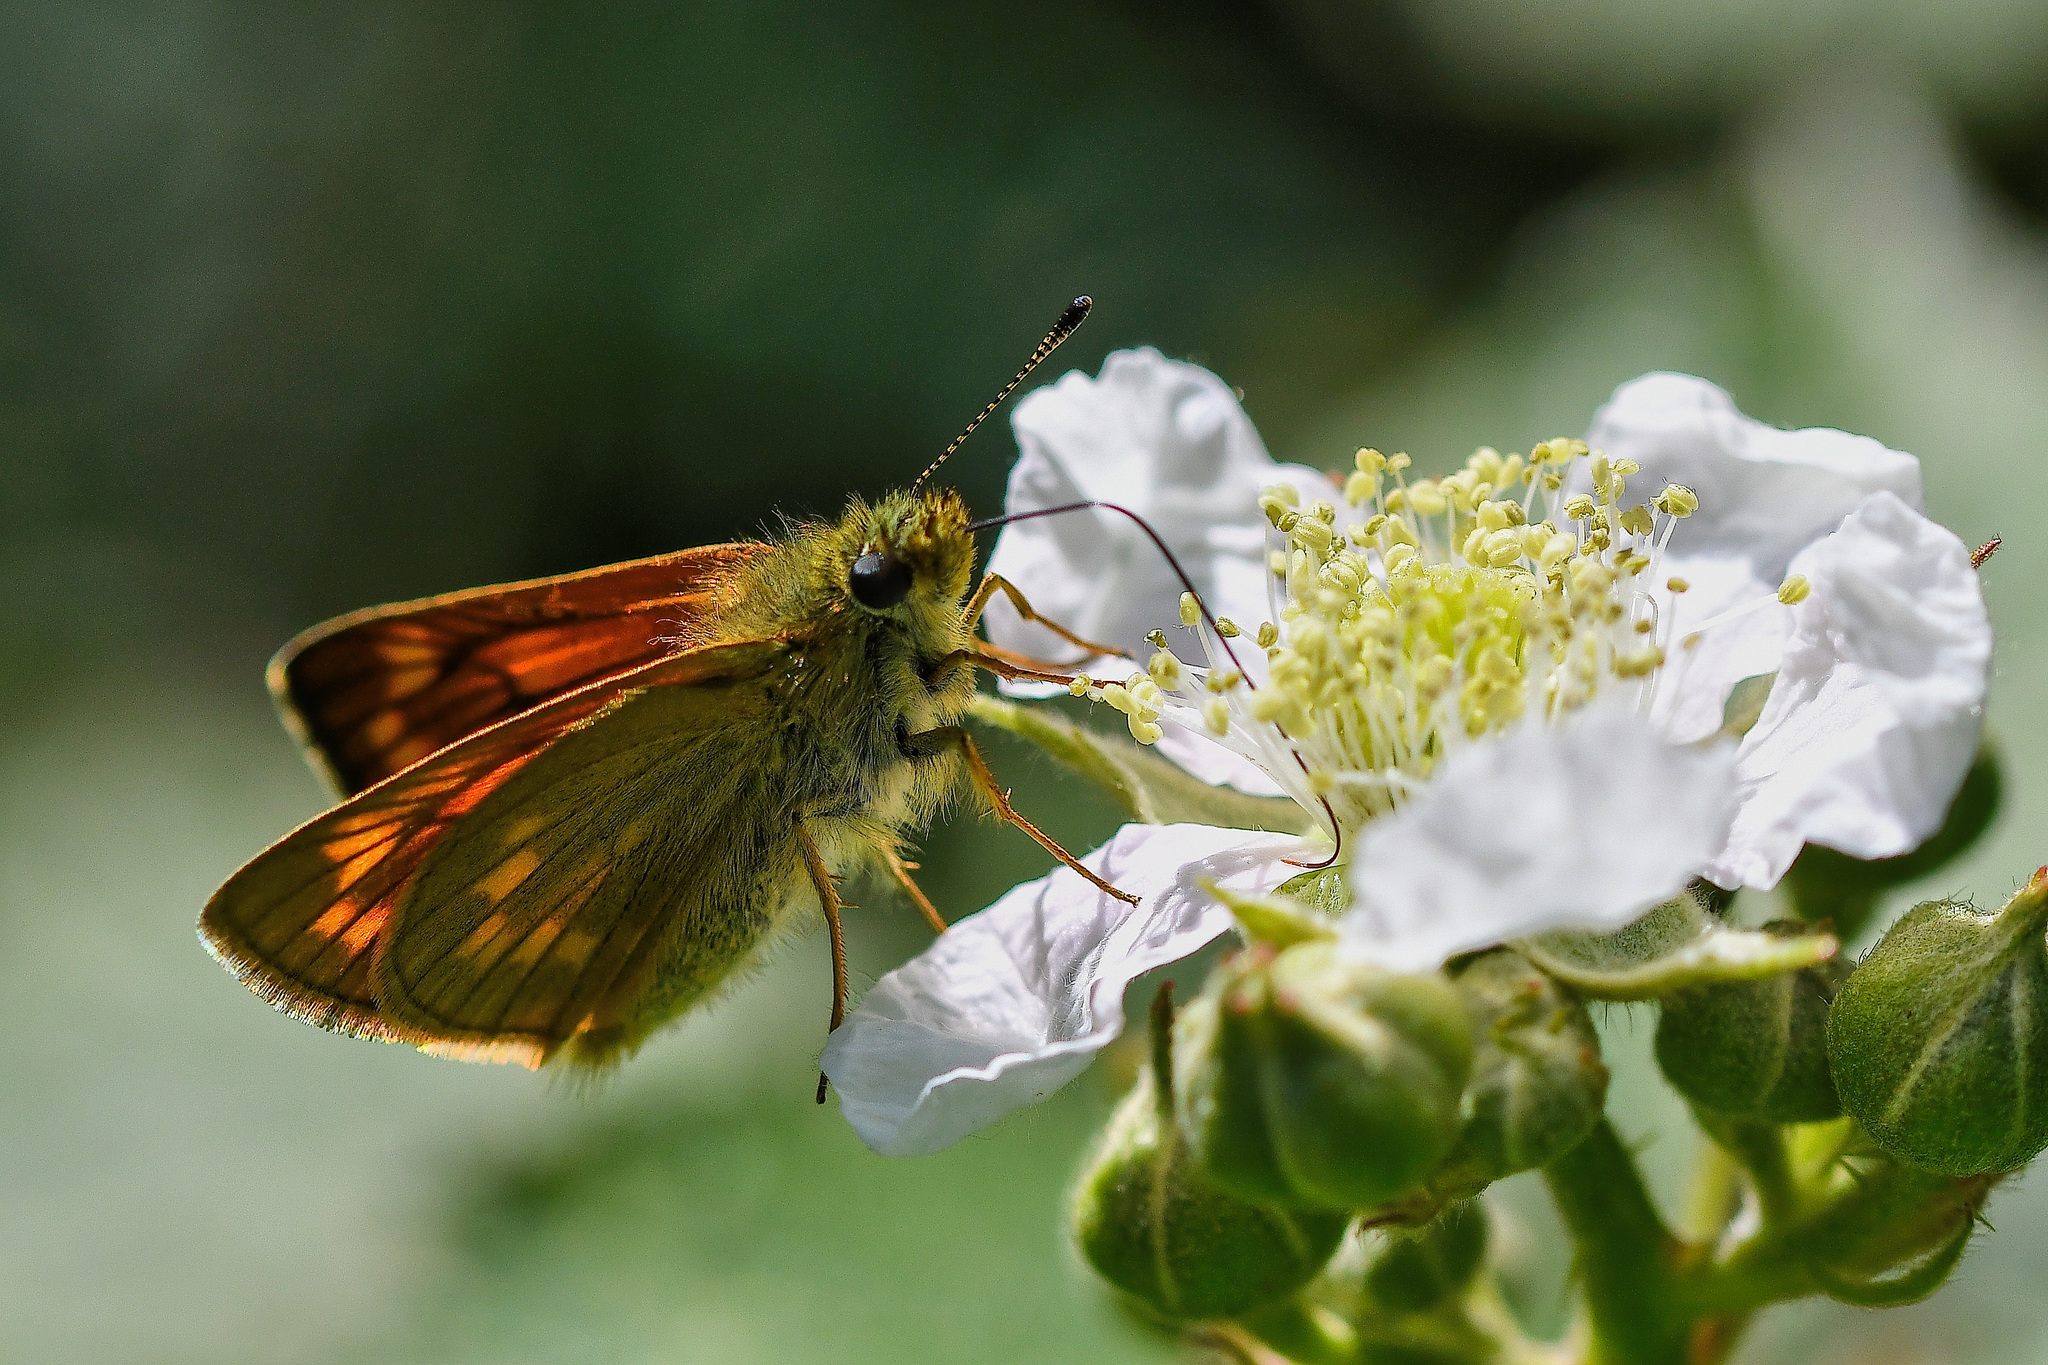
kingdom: Animalia
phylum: Arthropoda
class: Insecta
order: Lepidoptera
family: Hesperiidae
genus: Ochlodes
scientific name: Ochlodes venata
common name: Large skipper
